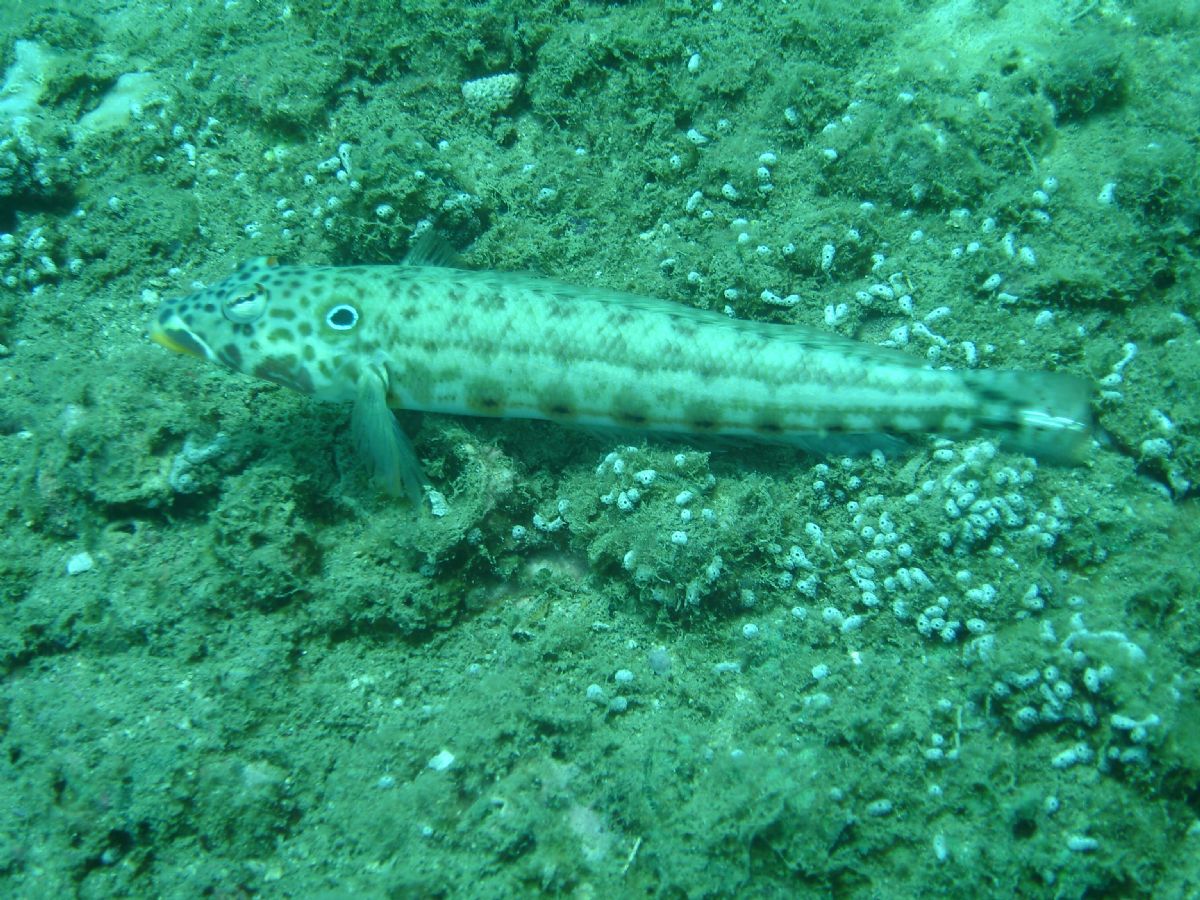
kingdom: Animalia
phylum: Chordata
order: Perciformes
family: Pinguipedidae
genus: Parapercis
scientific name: Parapercis clathrata
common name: Latticed sandperch
